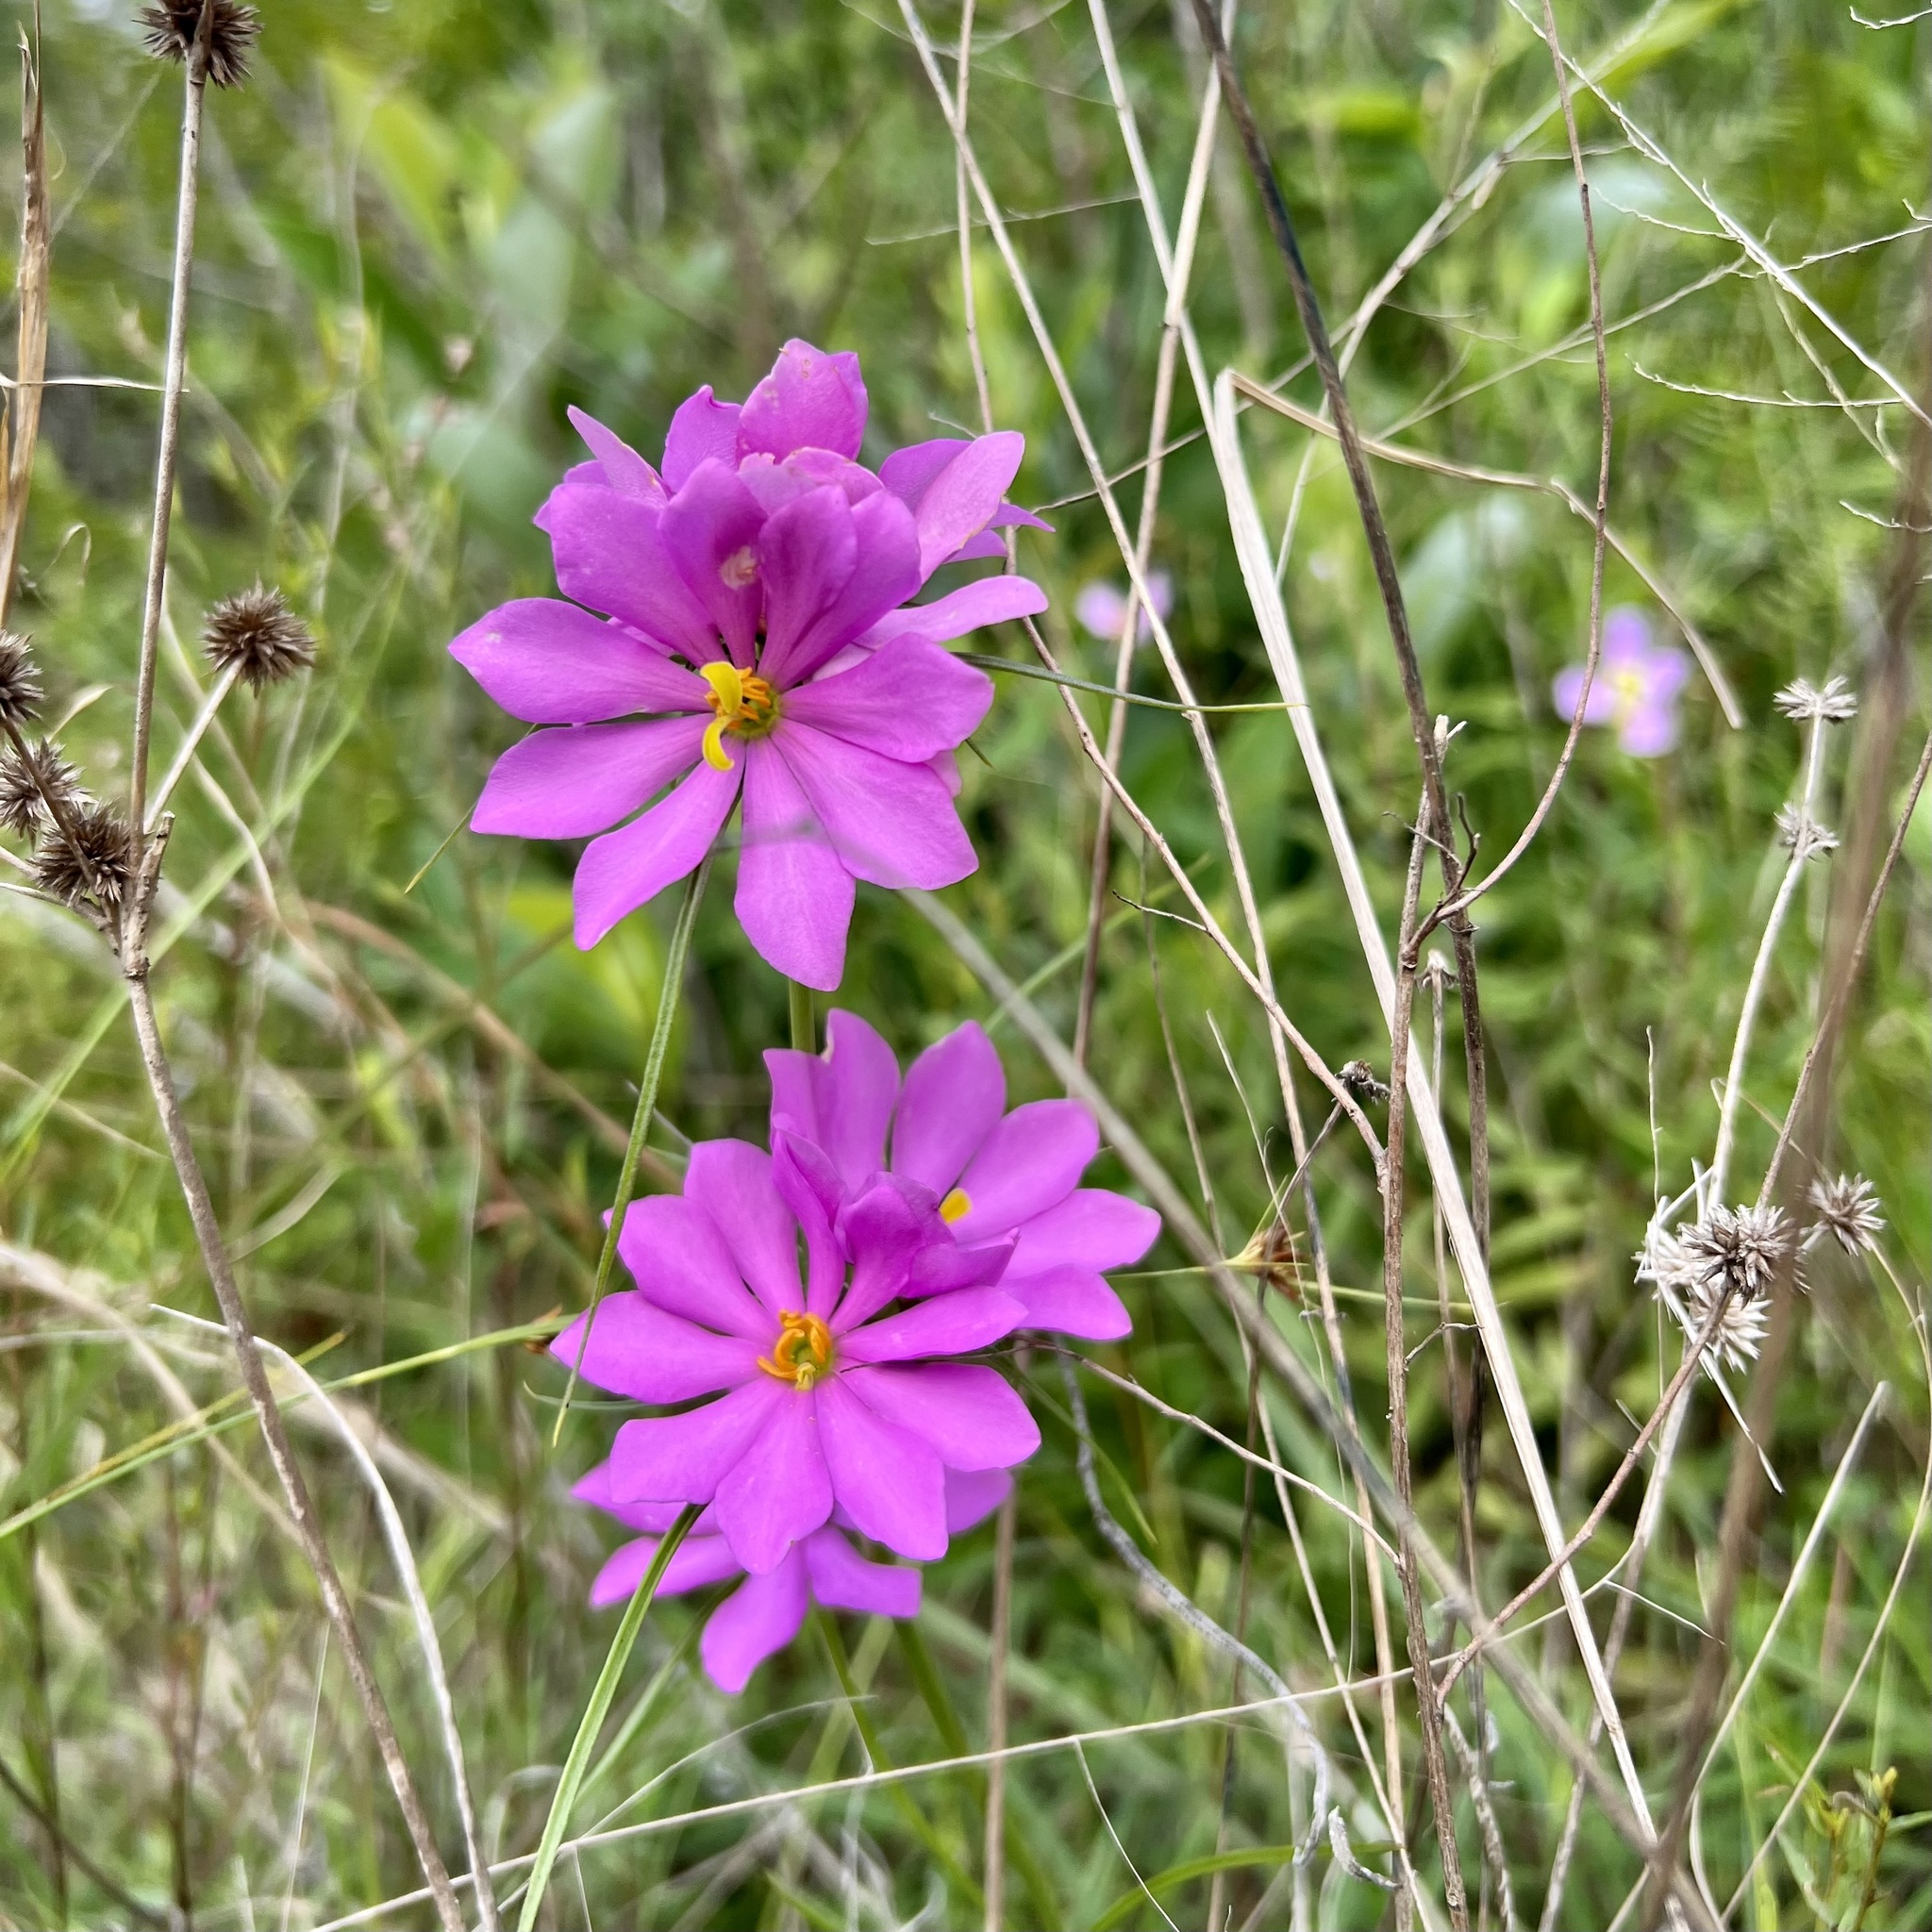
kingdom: Plantae
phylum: Tracheophyta
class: Magnoliopsida
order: Gentianales
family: Gentianaceae
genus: Sabatia
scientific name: Sabatia gentianoides
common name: Pinewoods rose-gentian
